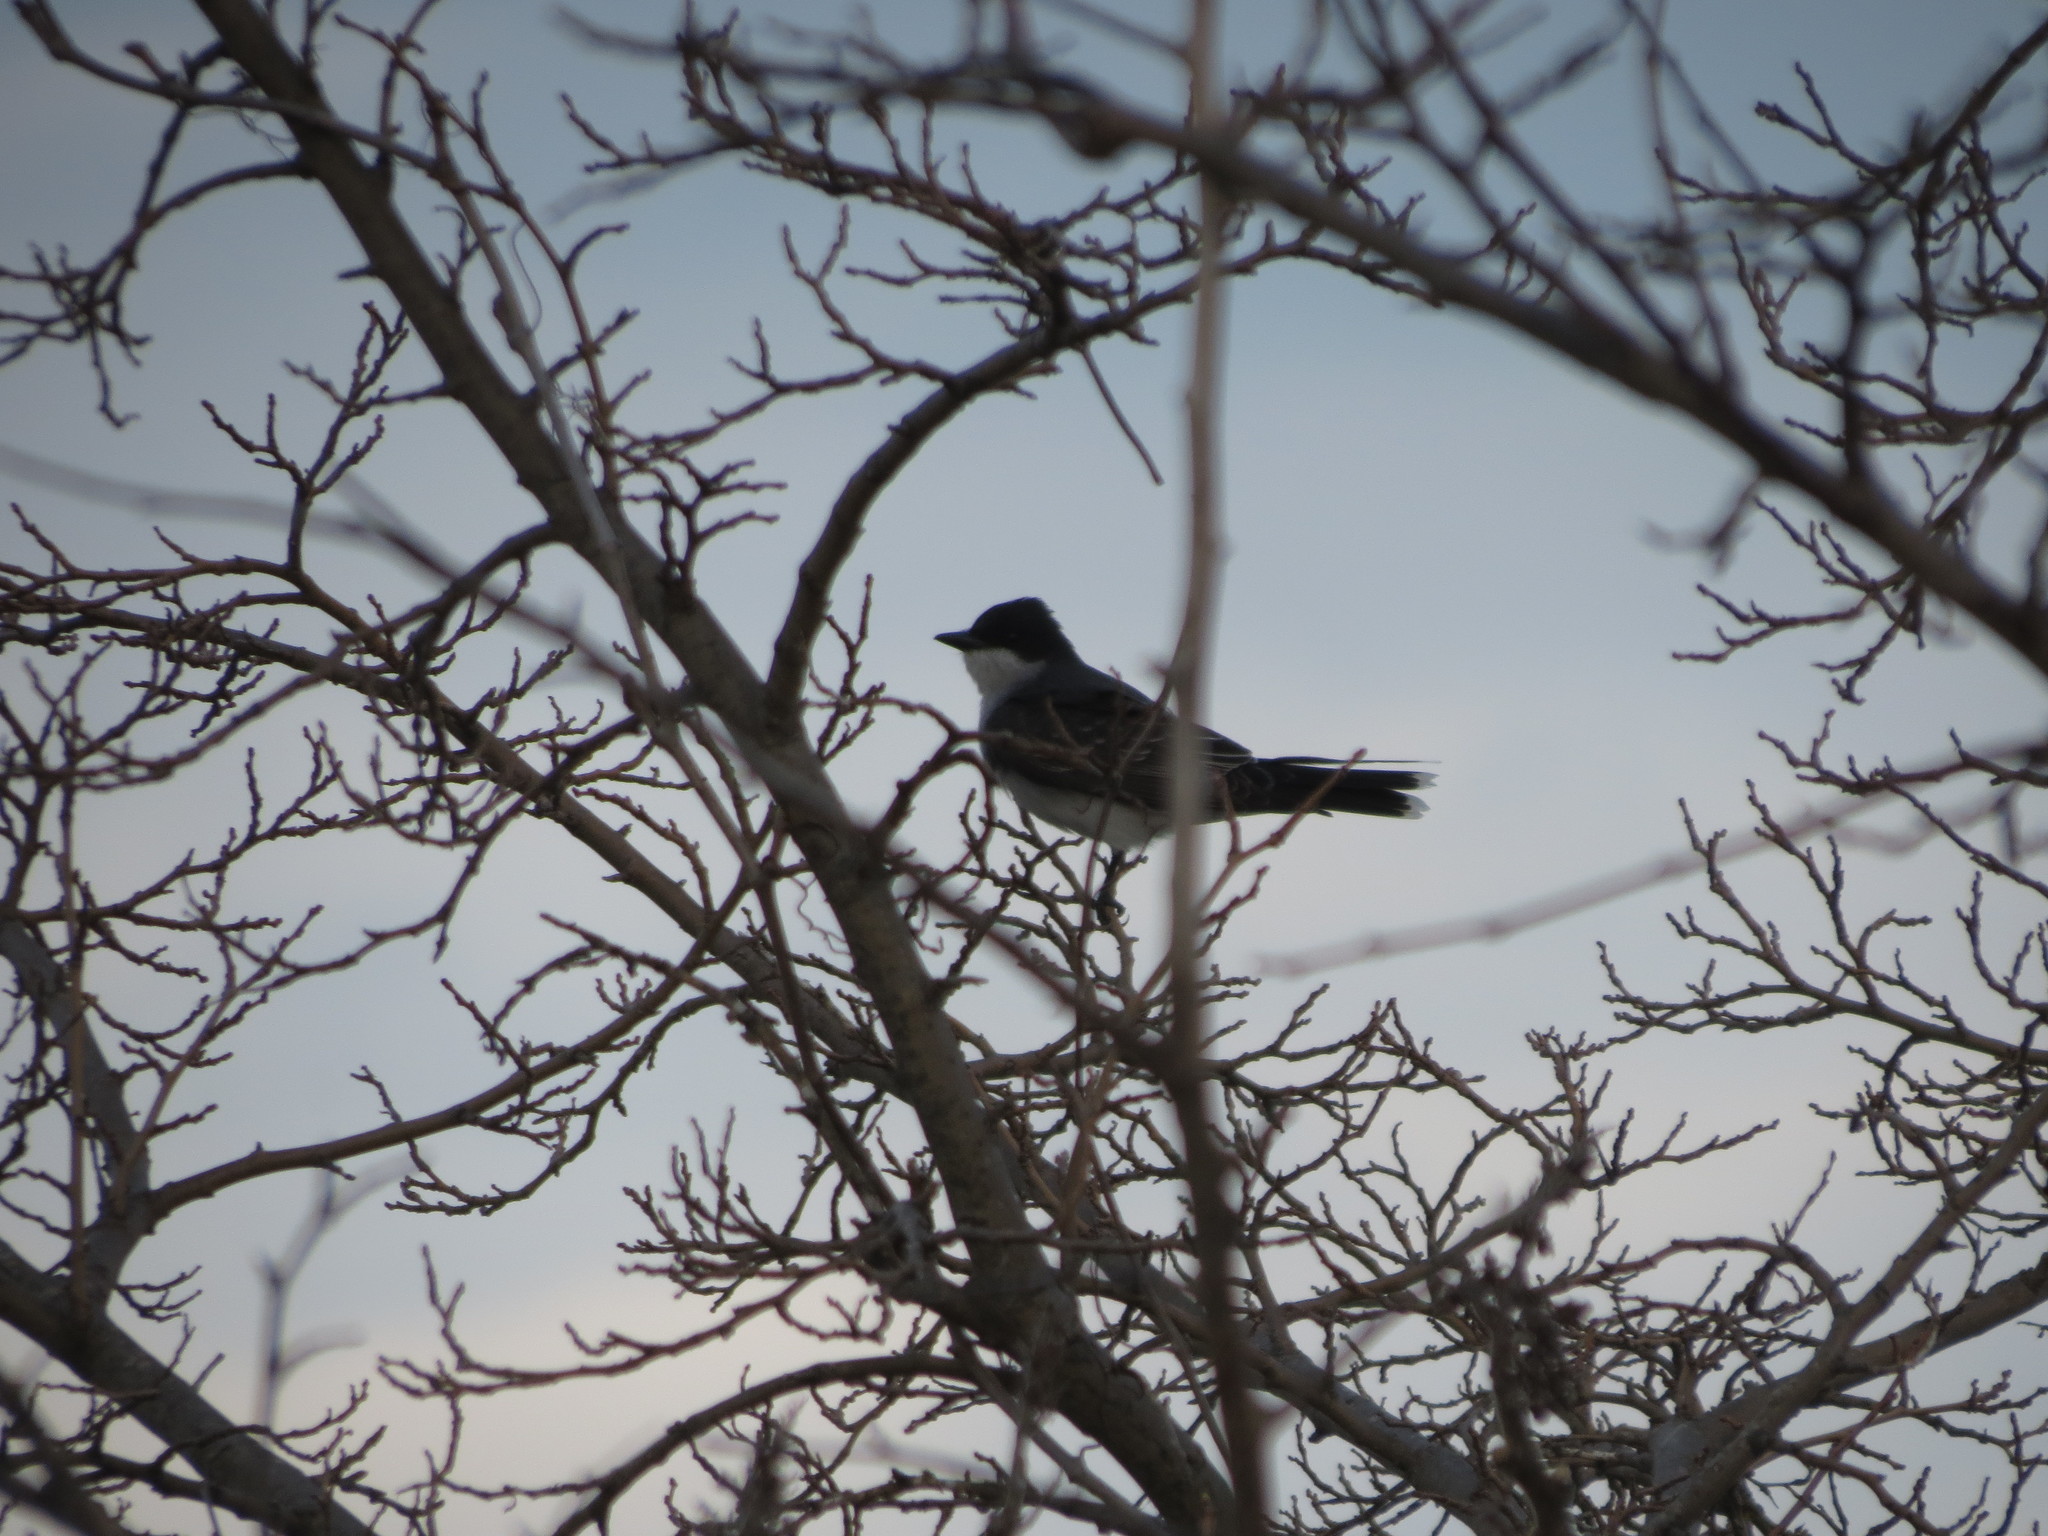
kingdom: Animalia
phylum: Chordata
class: Aves
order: Passeriformes
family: Tyrannidae
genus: Tyrannus
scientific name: Tyrannus tyrannus
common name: Eastern kingbird
